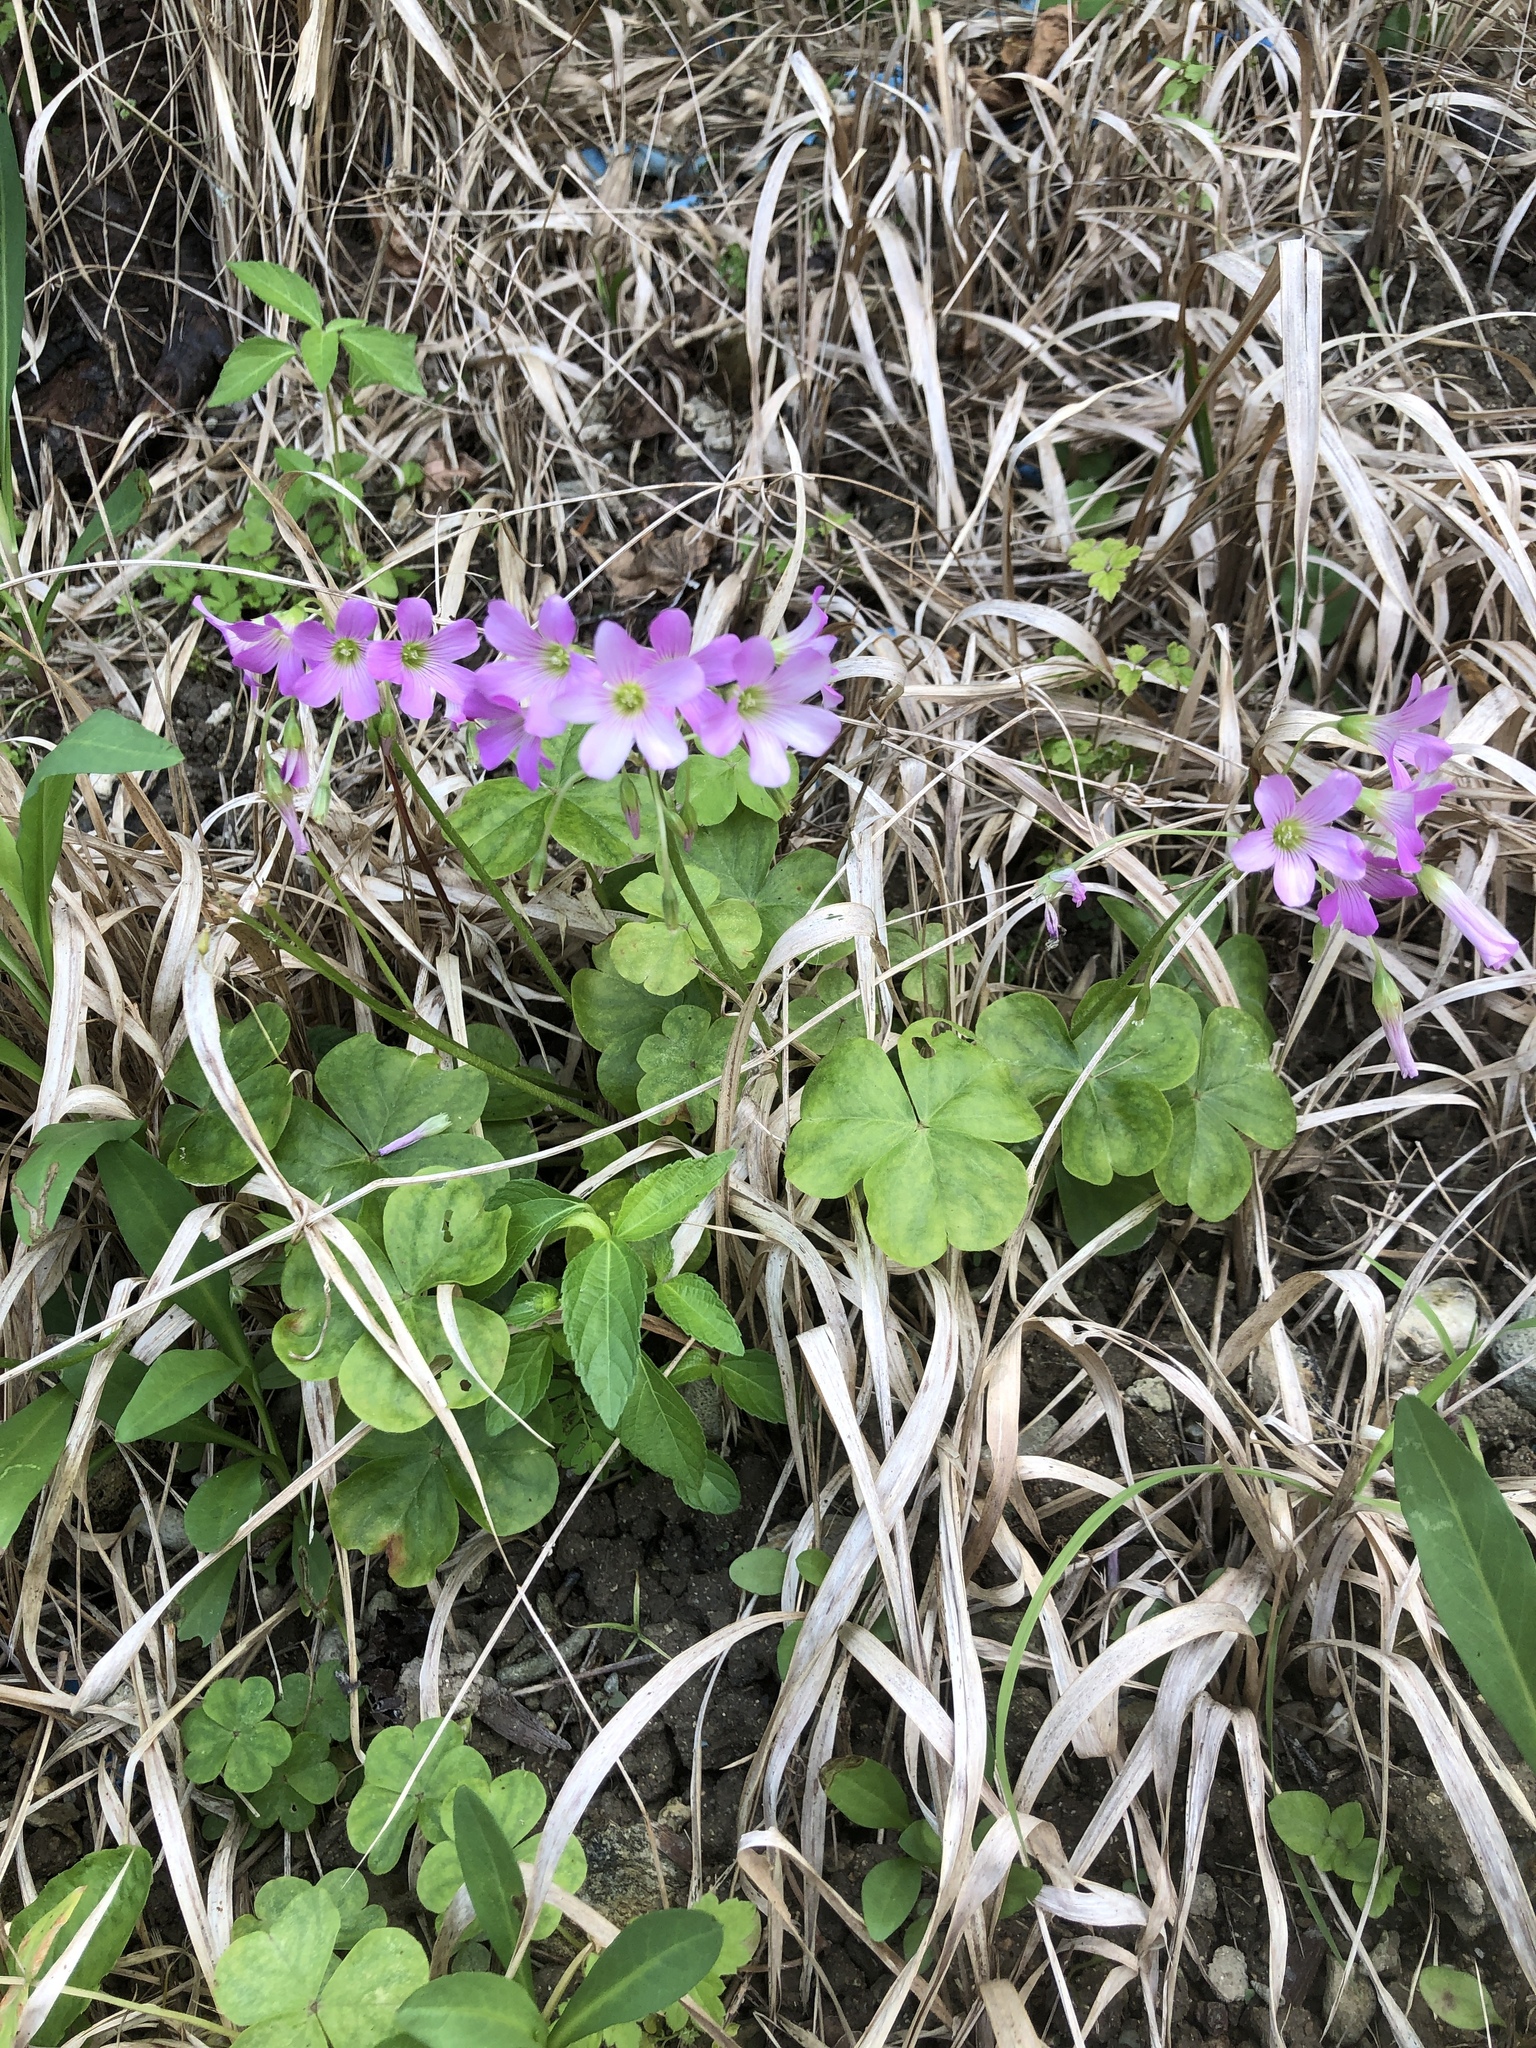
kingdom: Plantae
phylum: Tracheophyta
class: Magnoliopsida
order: Oxalidales
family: Oxalidaceae
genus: Oxalis
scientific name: Oxalis debilis
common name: Large-flowered pink-sorrel
